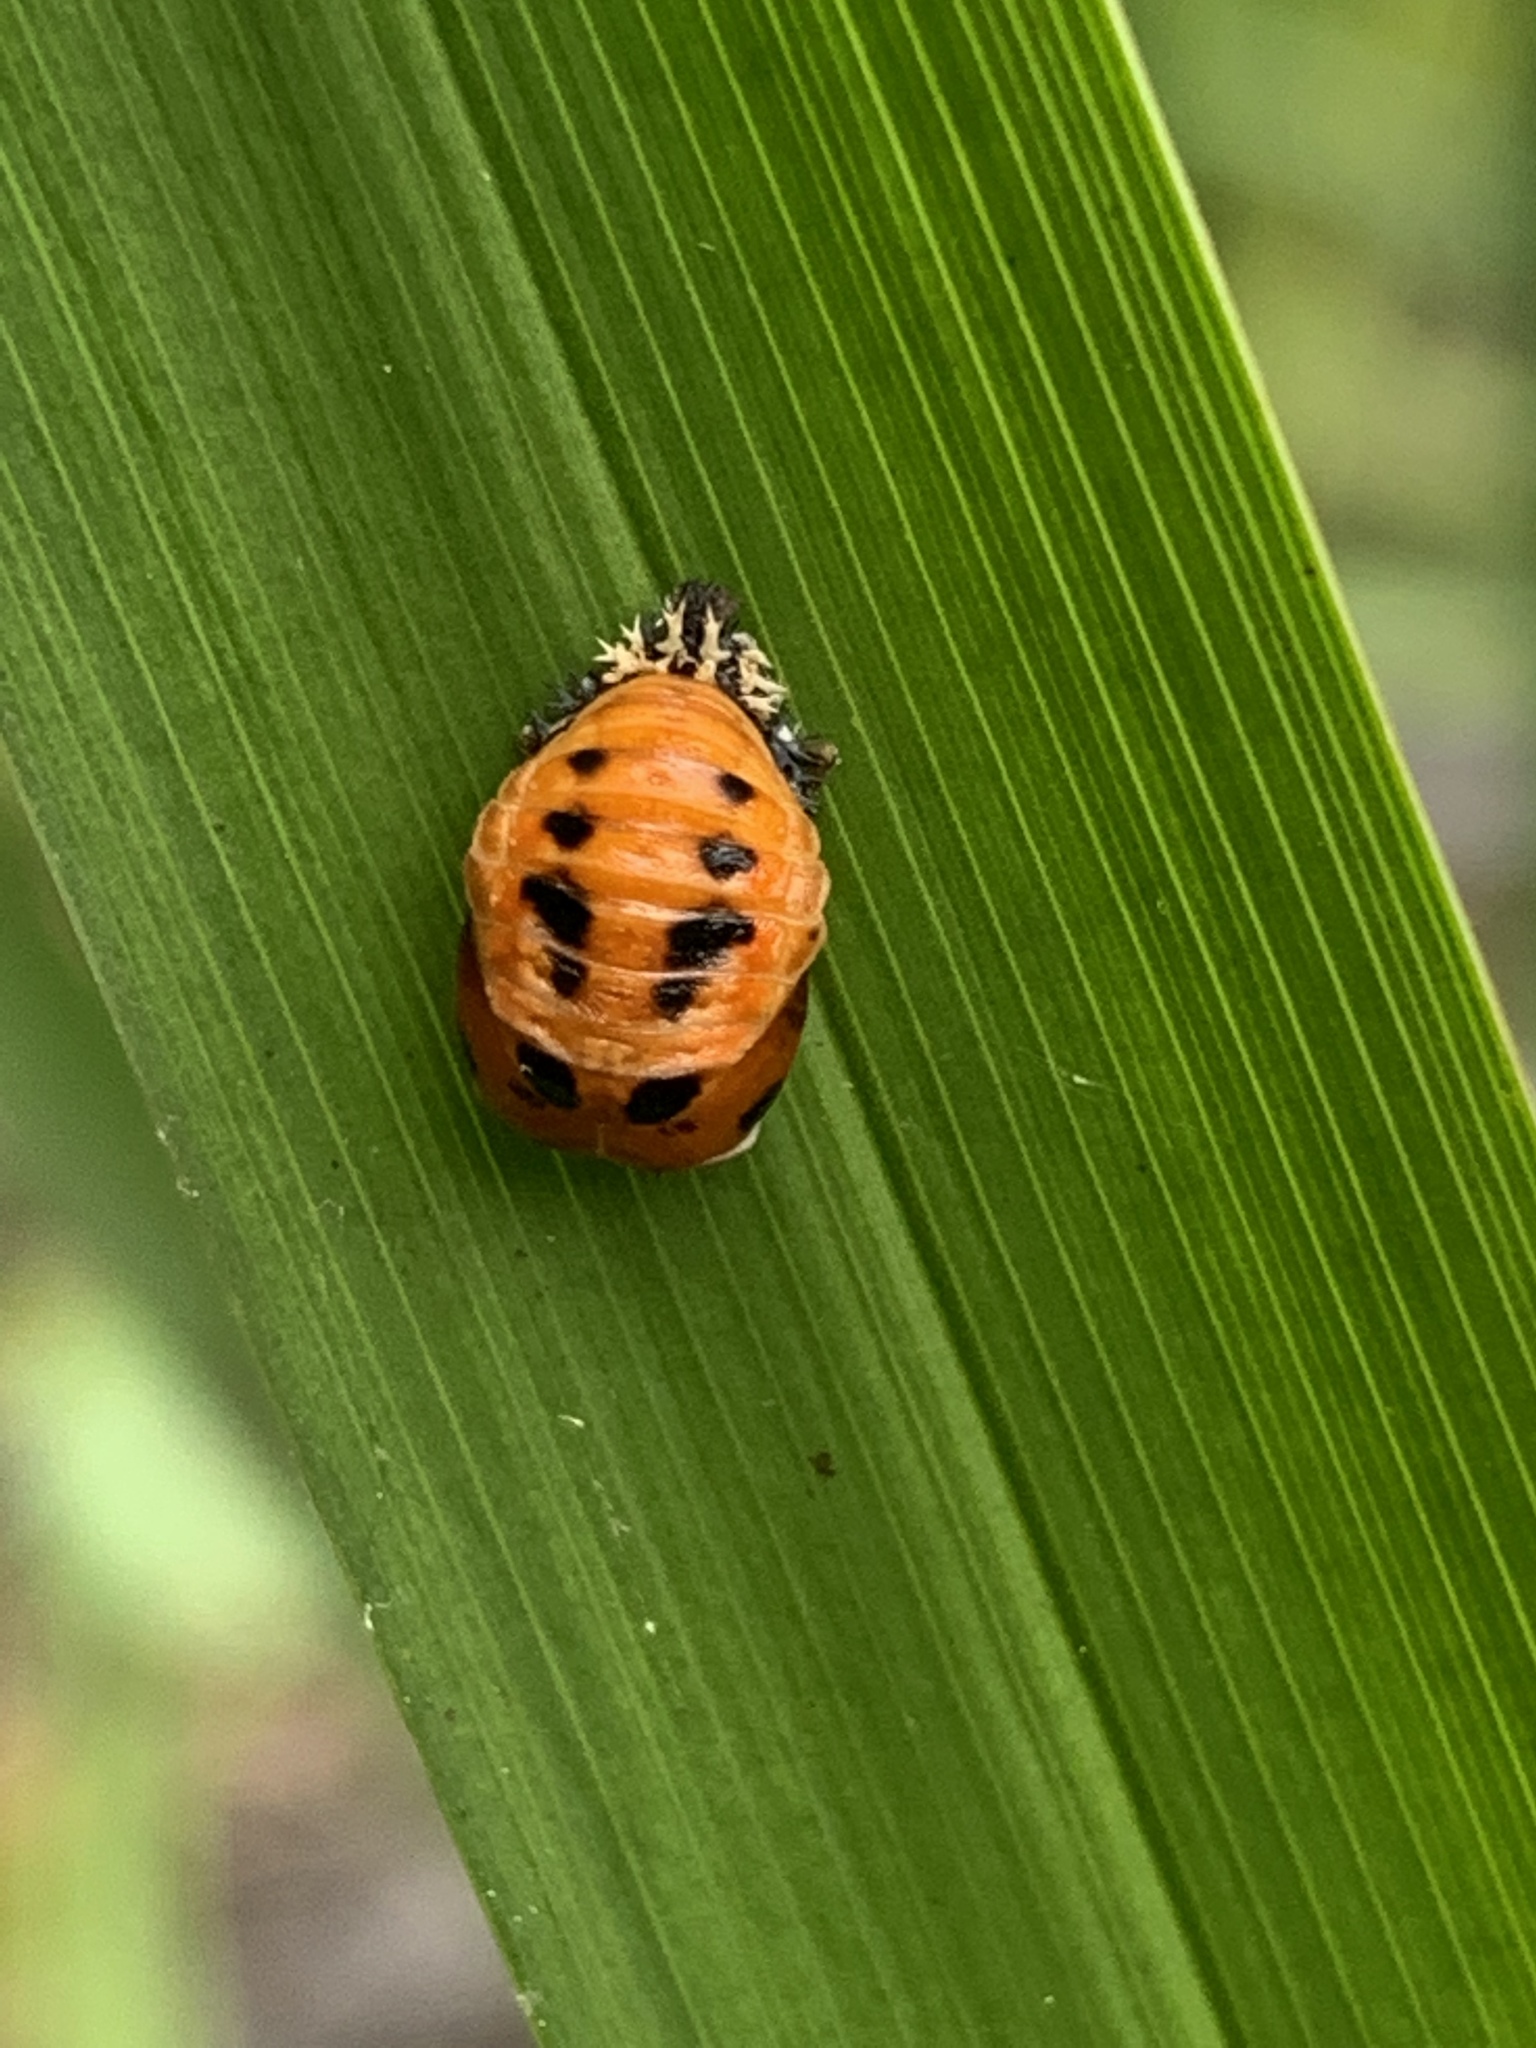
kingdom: Animalia
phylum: Arthropoda
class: Insecta
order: Coleoptera
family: Coccinellidae
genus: Harmonia
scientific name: Harmonia axyridis
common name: Harlequin ladybird
